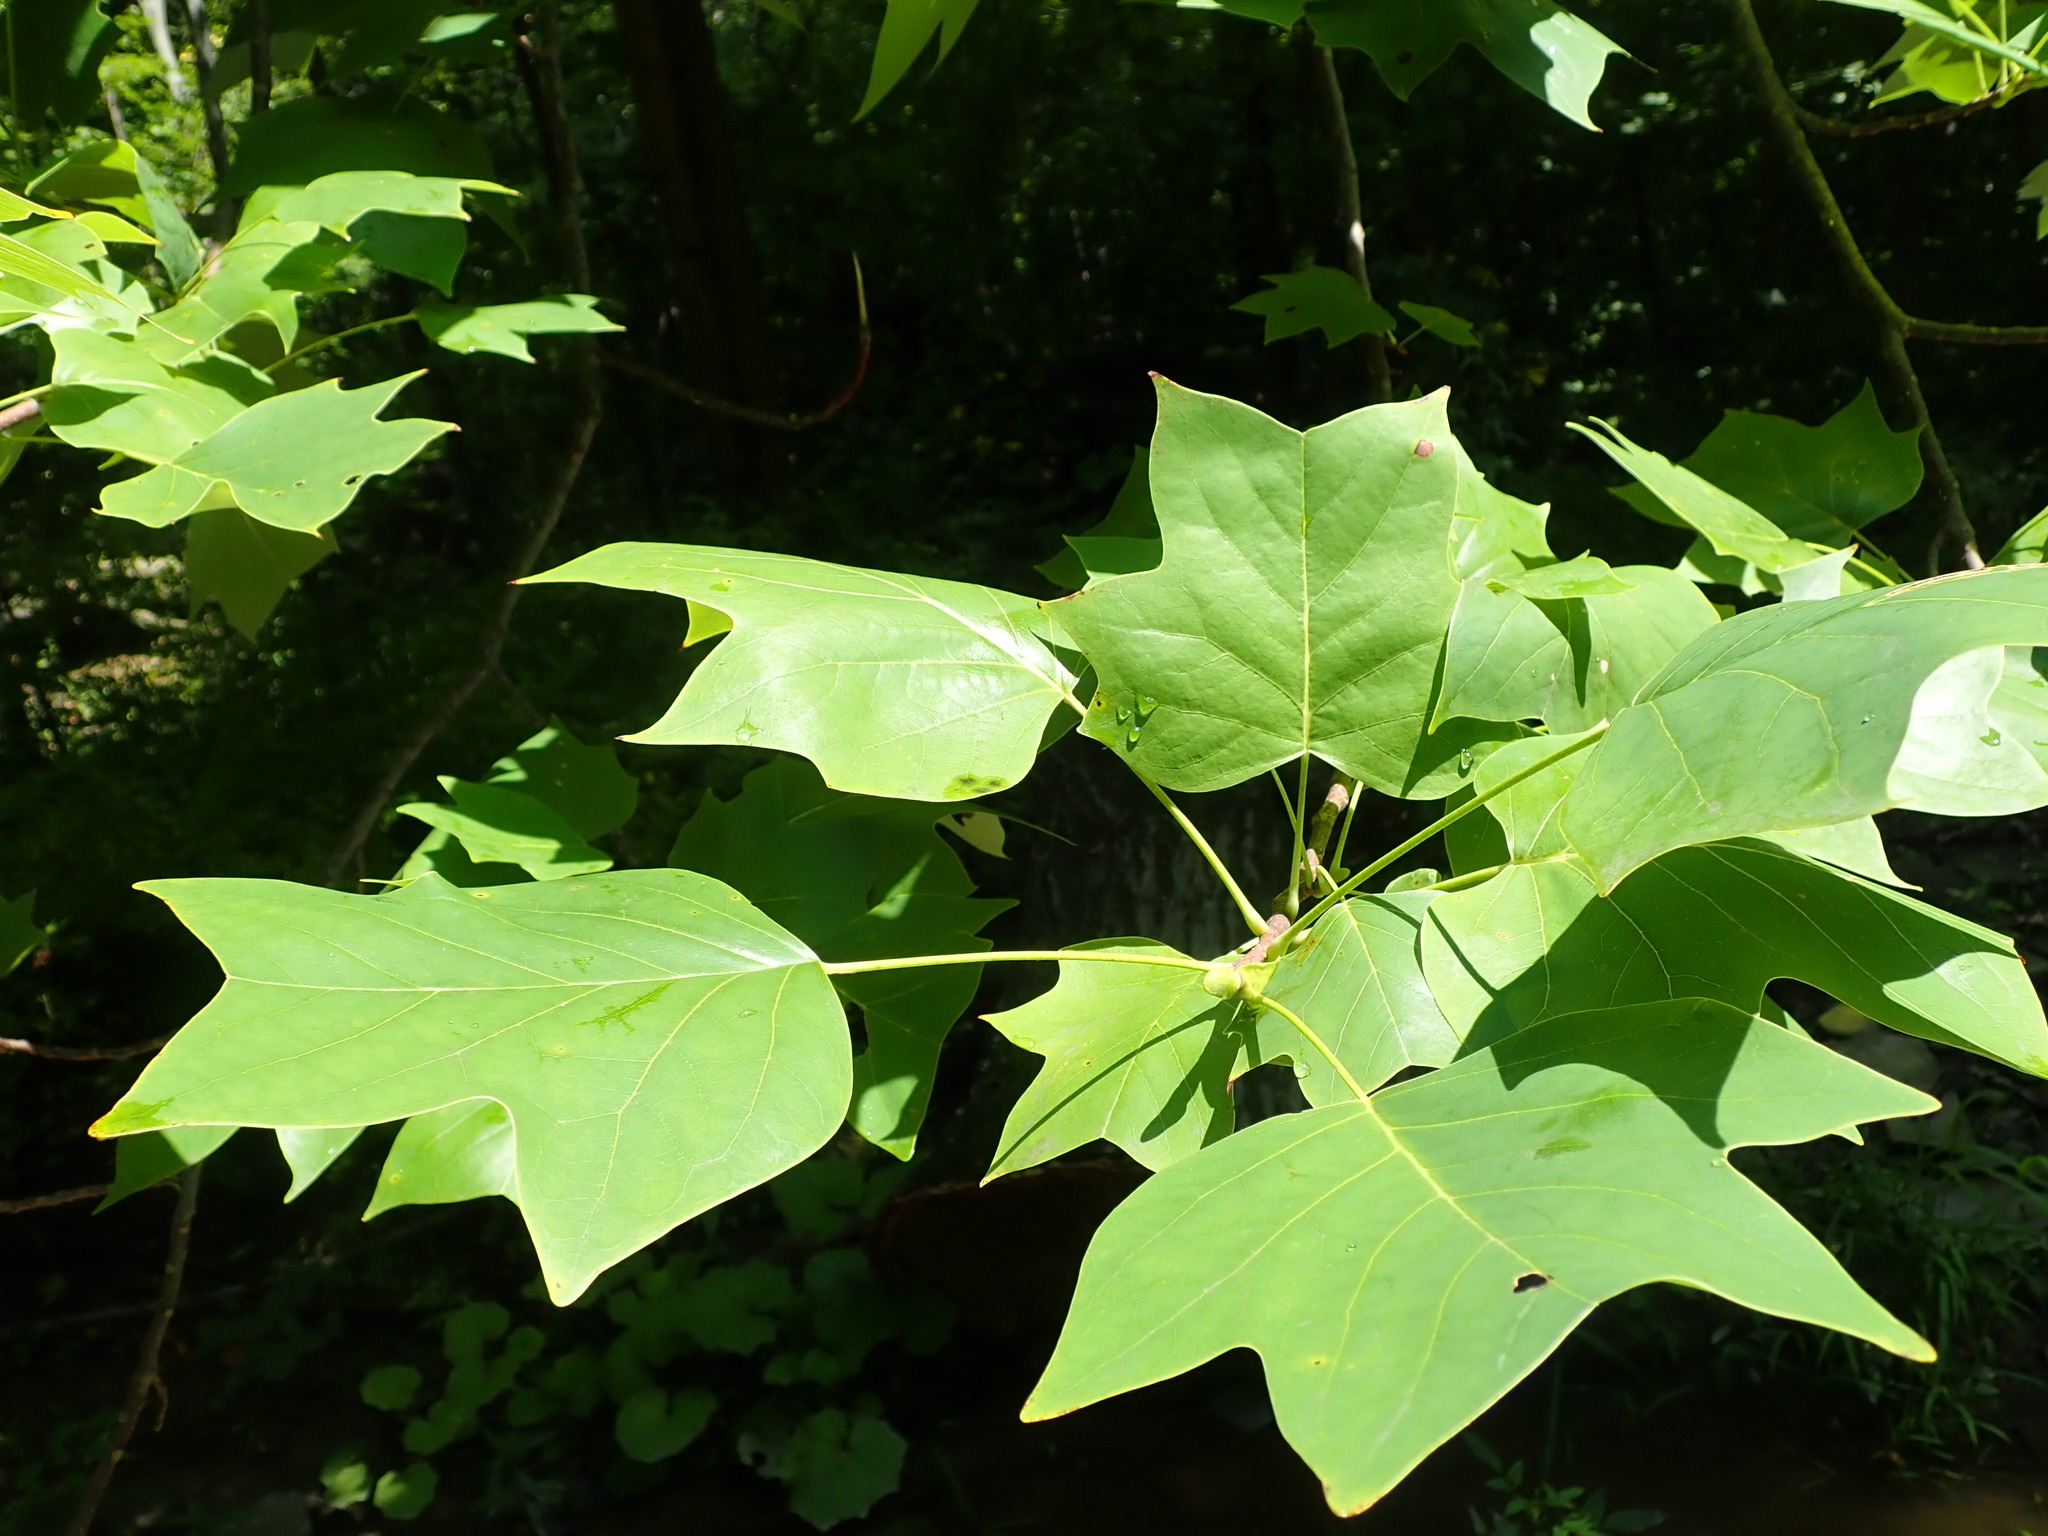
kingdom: Plantae
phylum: Tracheophyta
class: Magnoliopsida
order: Magnoliales
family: Magnoliaceae
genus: Liriodendron
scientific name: Liriodendron tulipifera
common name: Tulip tree
